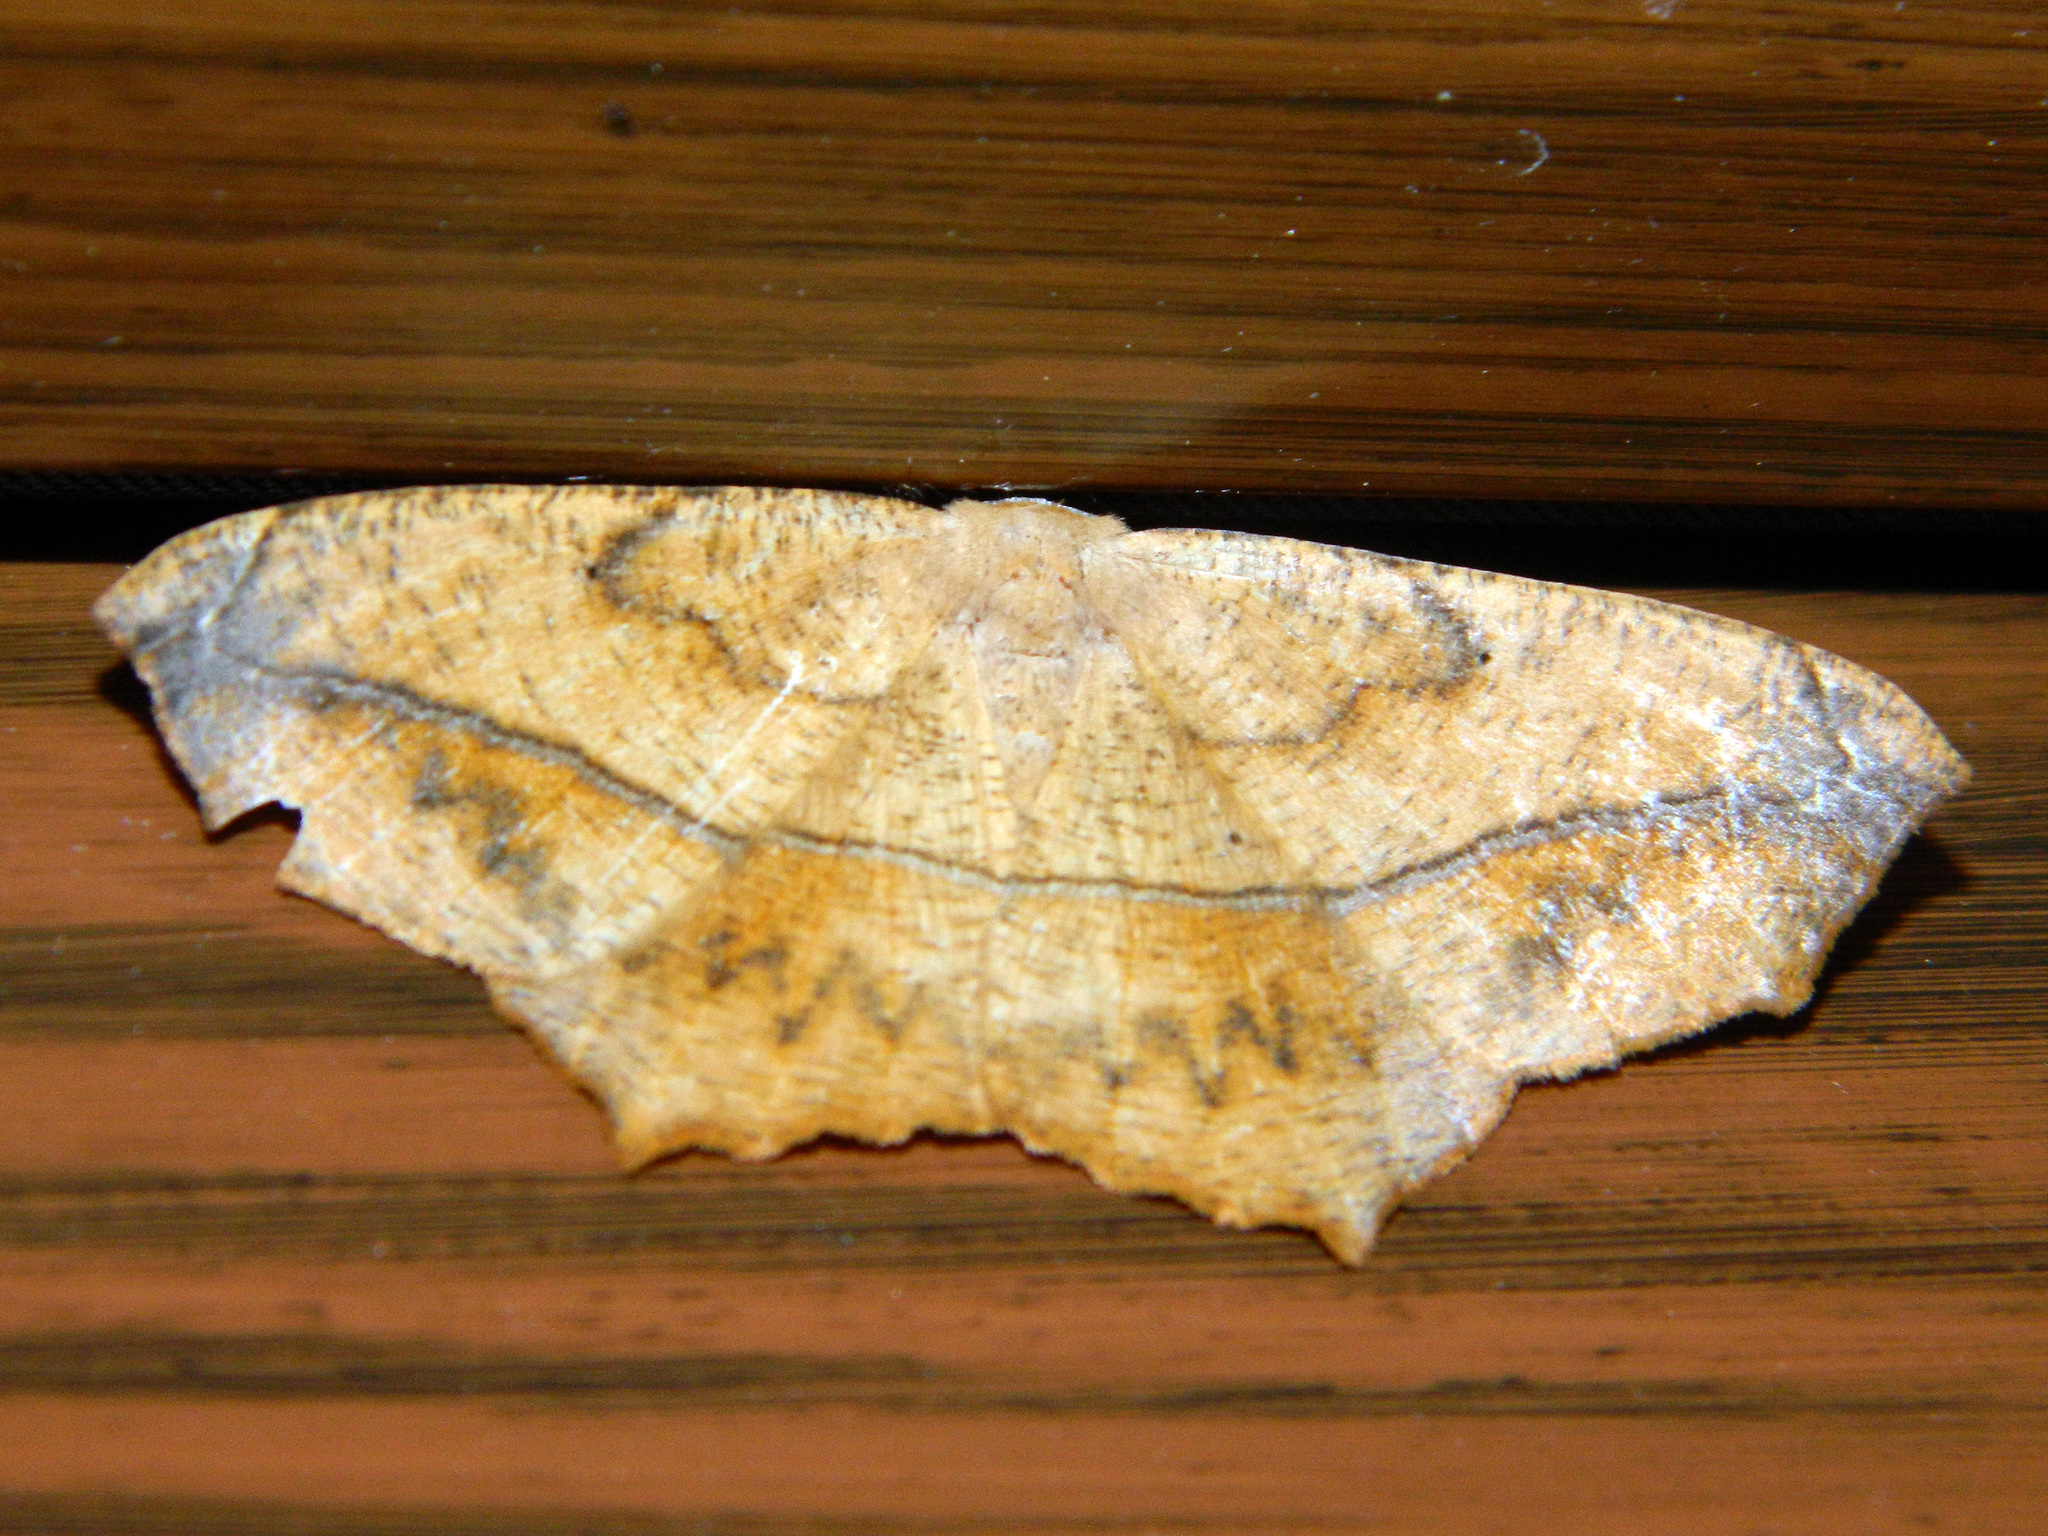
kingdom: Animalia
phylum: Arthropoda
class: Insecta
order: Lepidoptera
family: Geometridae
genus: Prochoerodes
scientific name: Prochoerodes lineola
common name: Large maple spanworm
